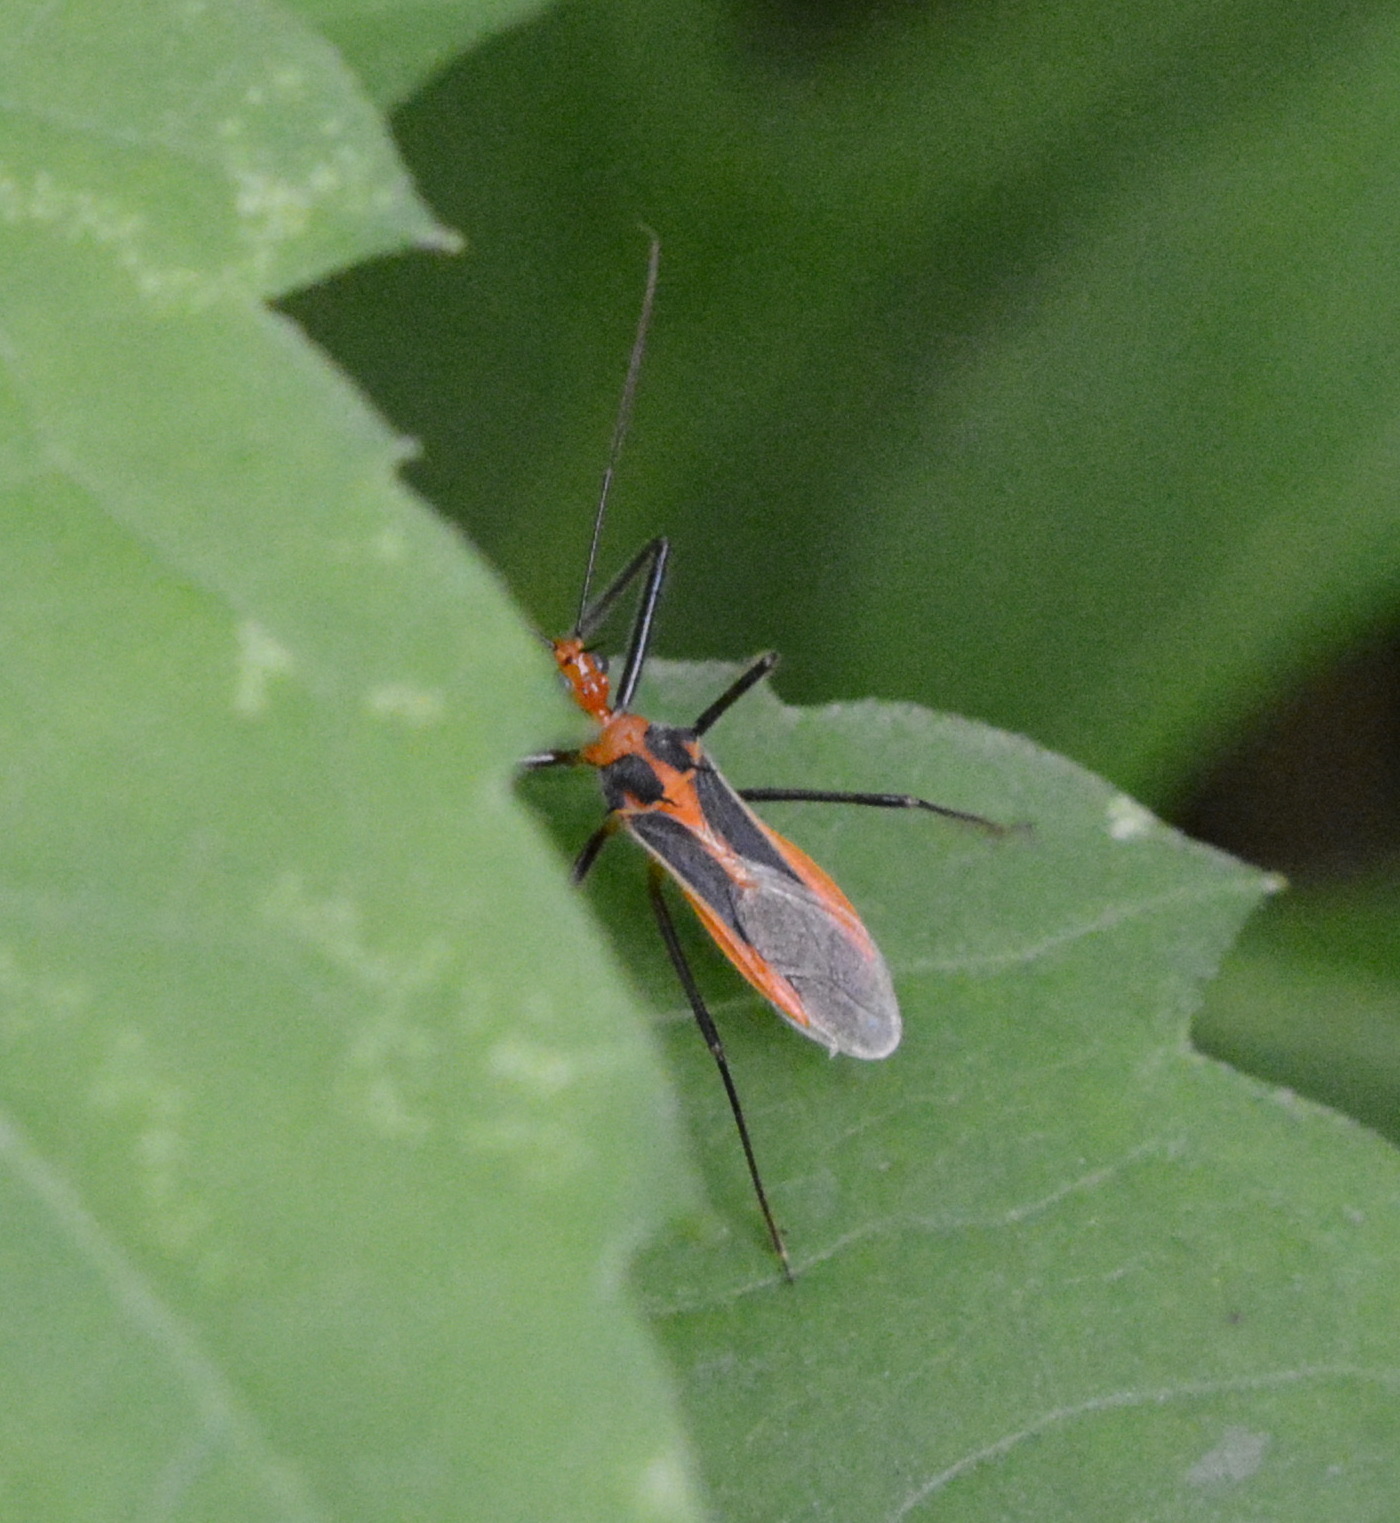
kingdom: Animalia
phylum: Arthropoda
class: Insecta
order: Hemiptera
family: Reduviidae
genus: Repipta
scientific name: Repipta taurus
